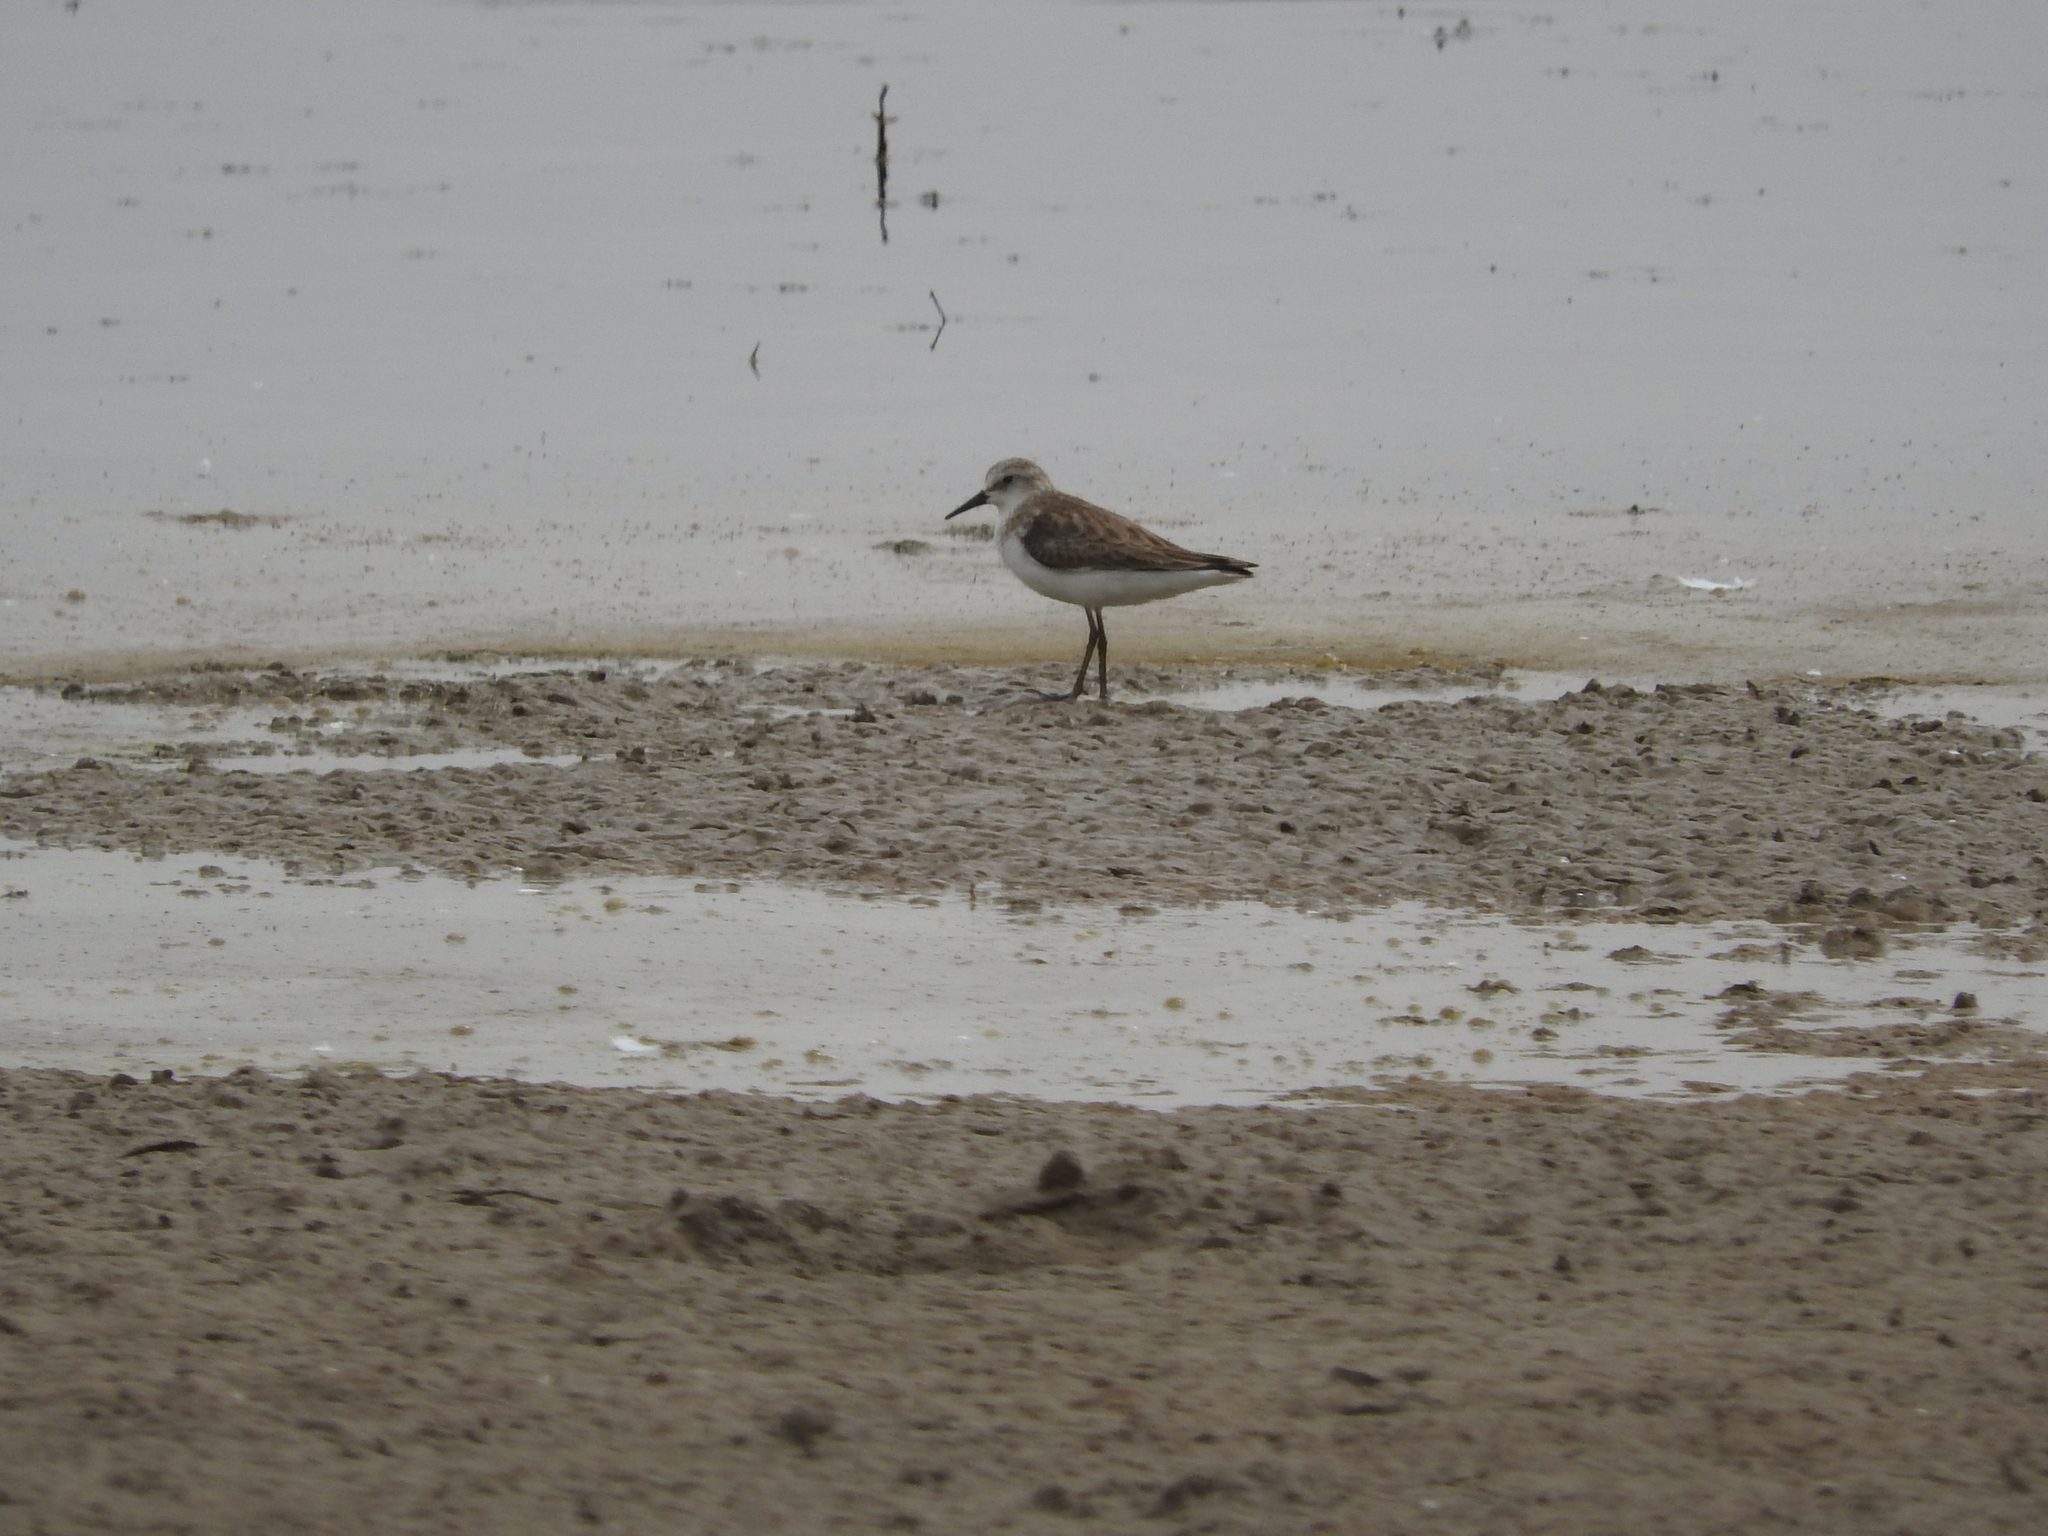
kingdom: Animalia
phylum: Chordata
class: Aves
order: Charadriiformes
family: Scolopacidae
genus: Calidris
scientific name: Calidris minuta
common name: Little stint
